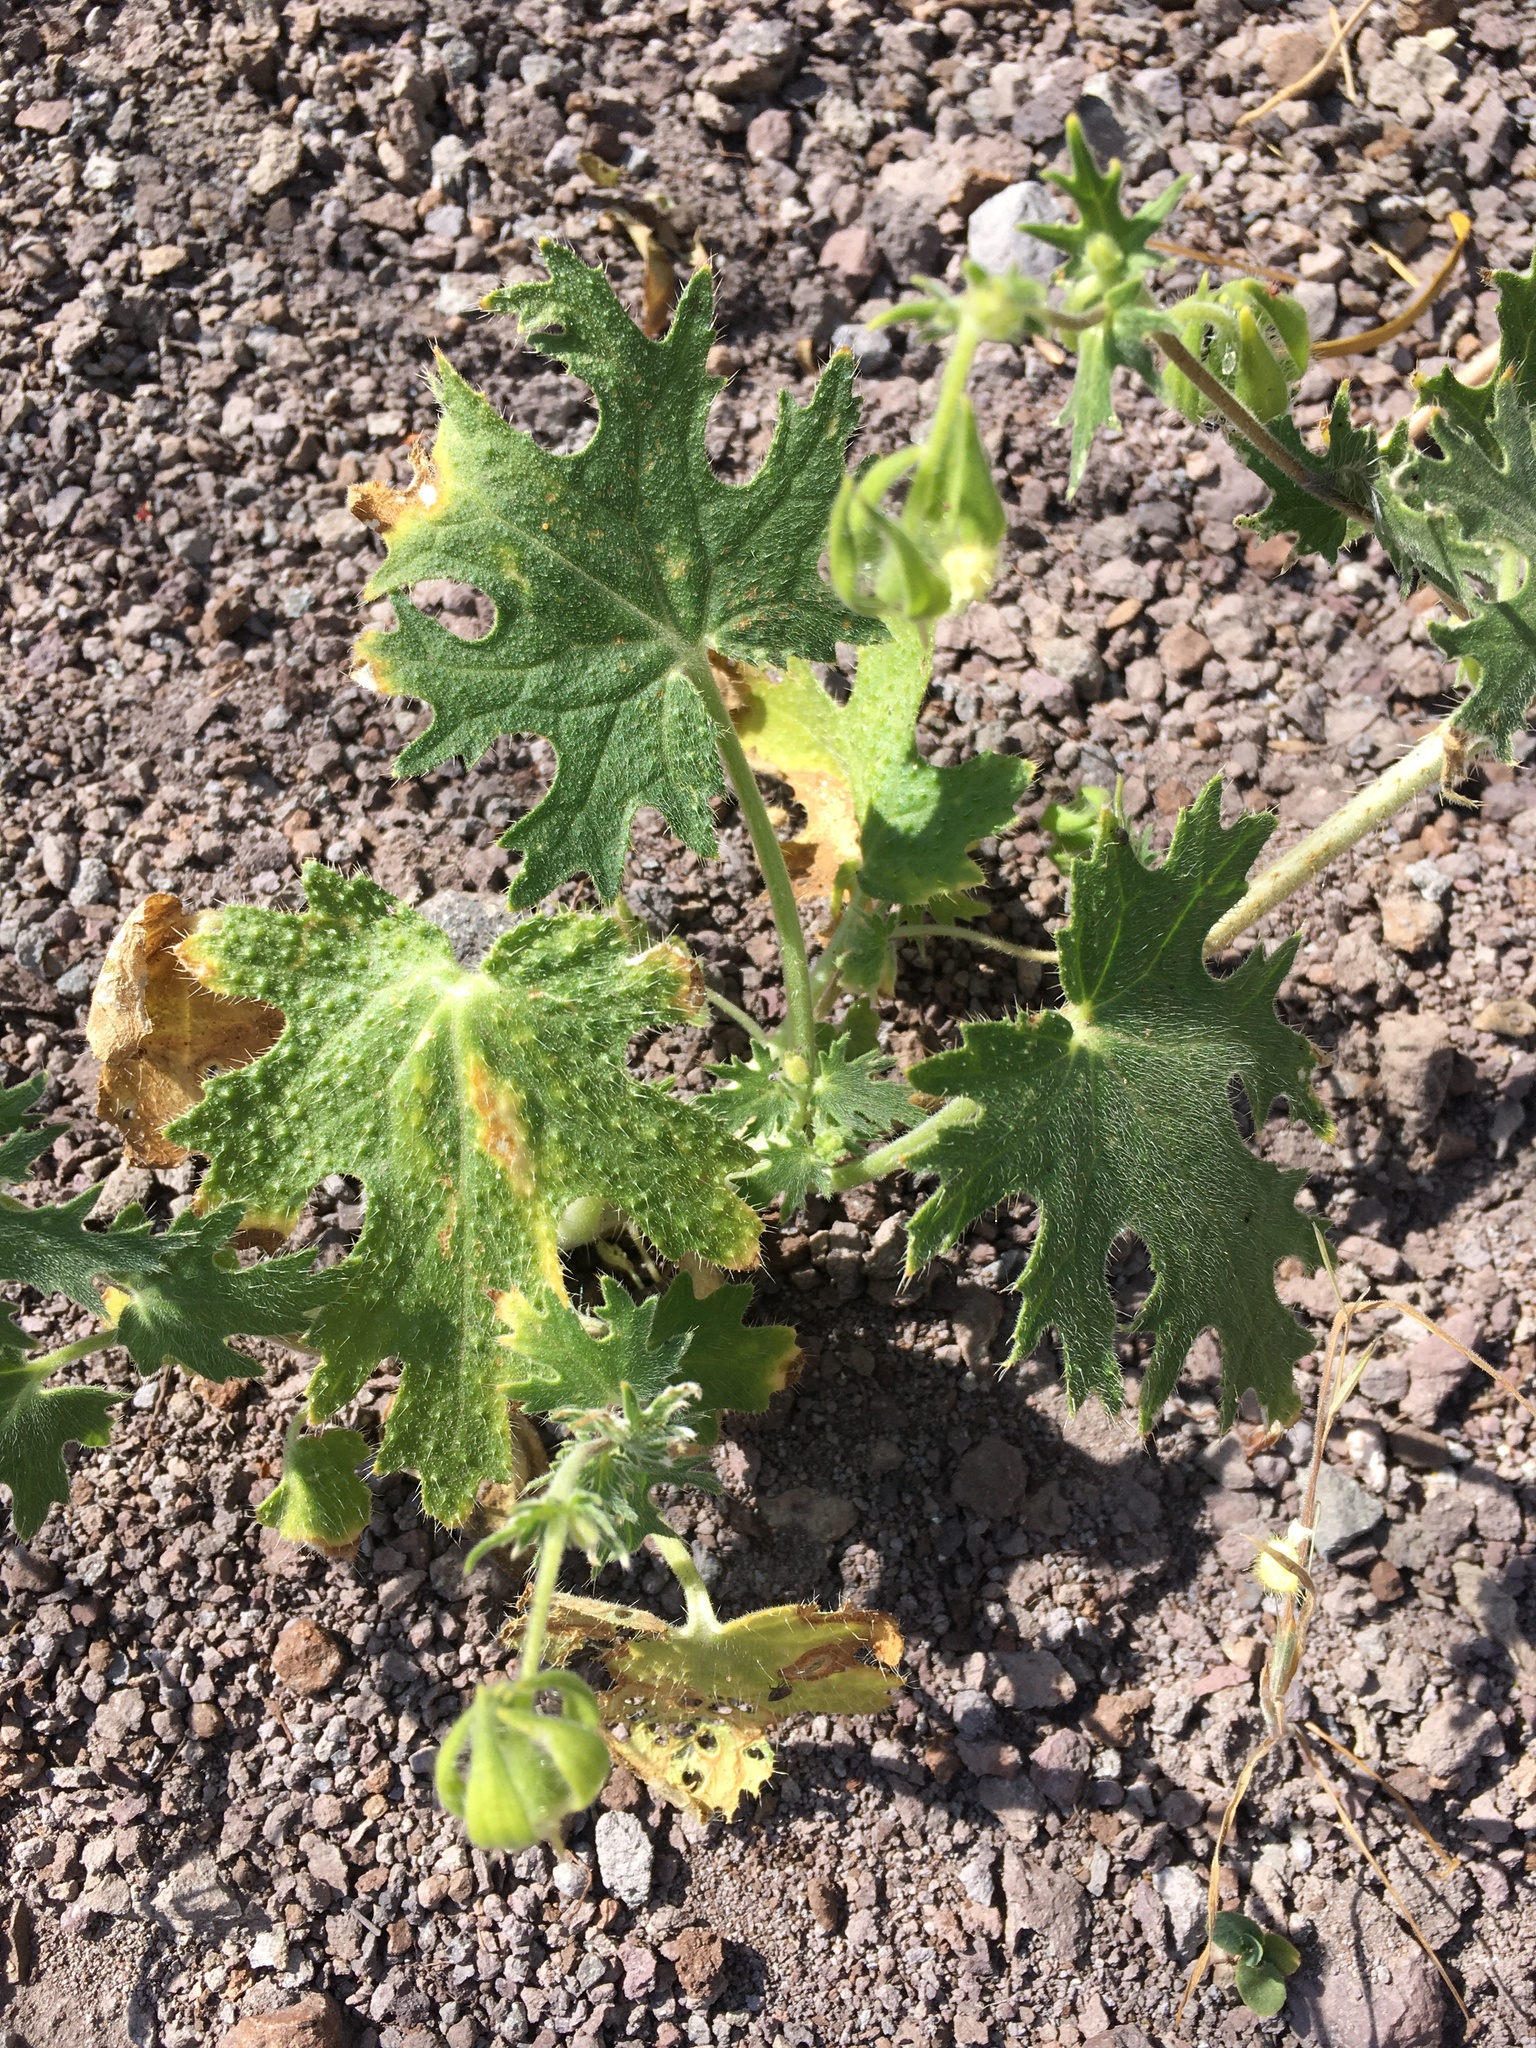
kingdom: Plantae
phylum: Tracheophyta
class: Magnoliopsida
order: Cornales
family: Loasaceae
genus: Loasa
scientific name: Loasa prostrata
